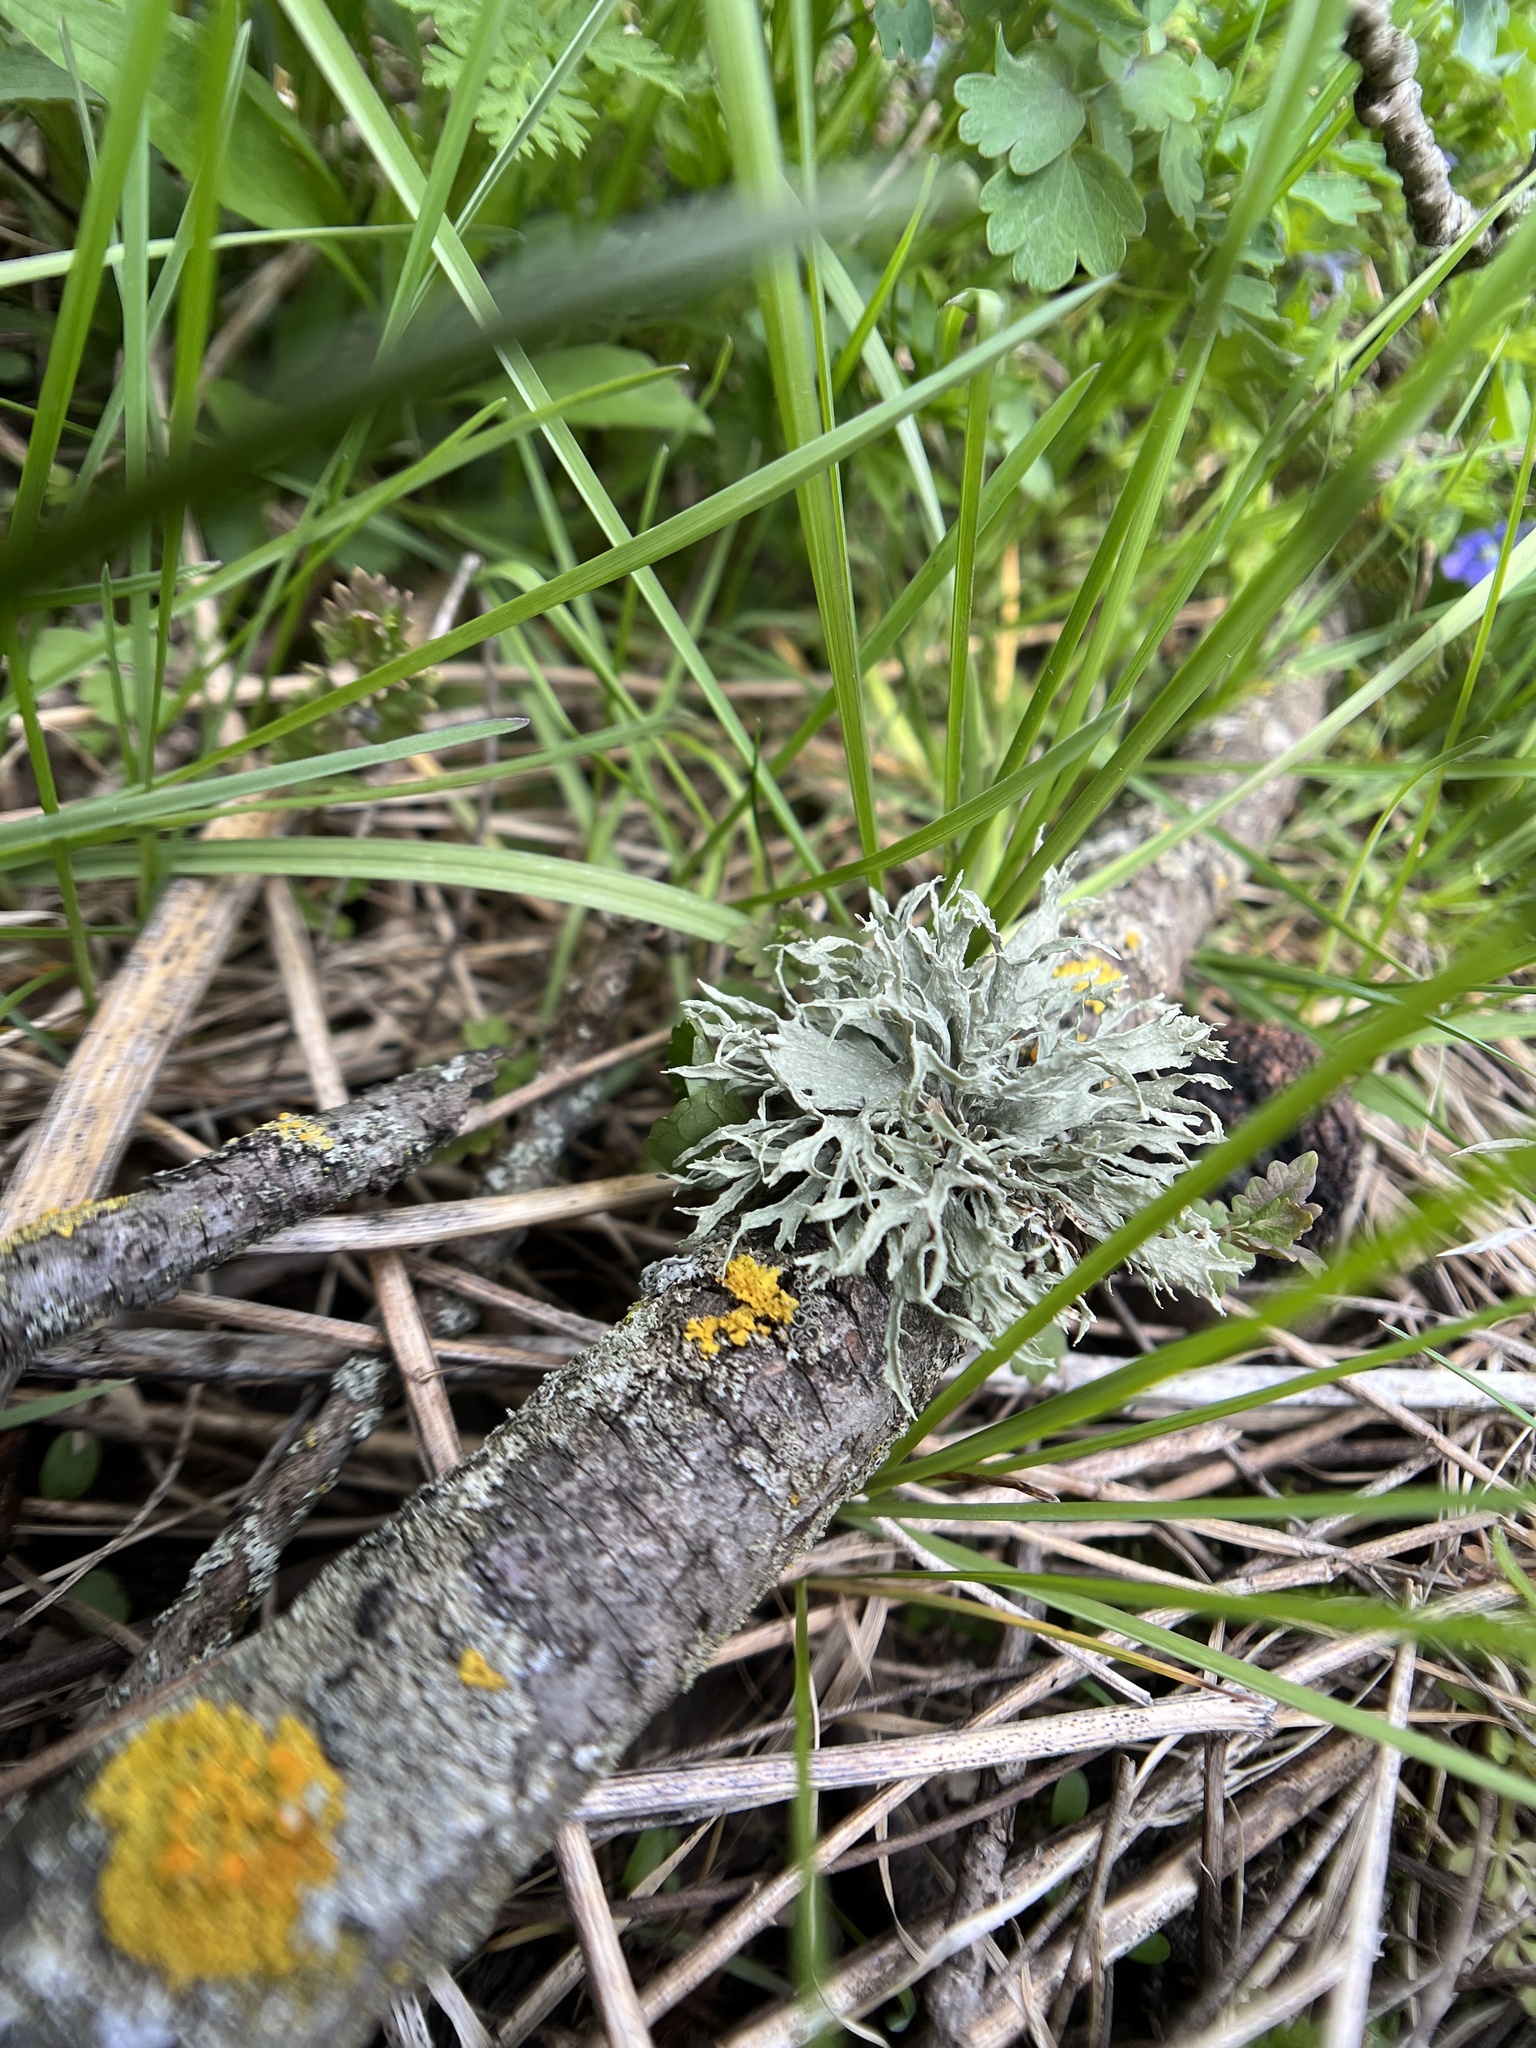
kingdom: Fungi
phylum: Ascomycota
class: Lecanoromycetes
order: Lecanorales
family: Ramalinaceae
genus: Ramalina
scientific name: Ramalina americana
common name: Sinewed bush lichen
